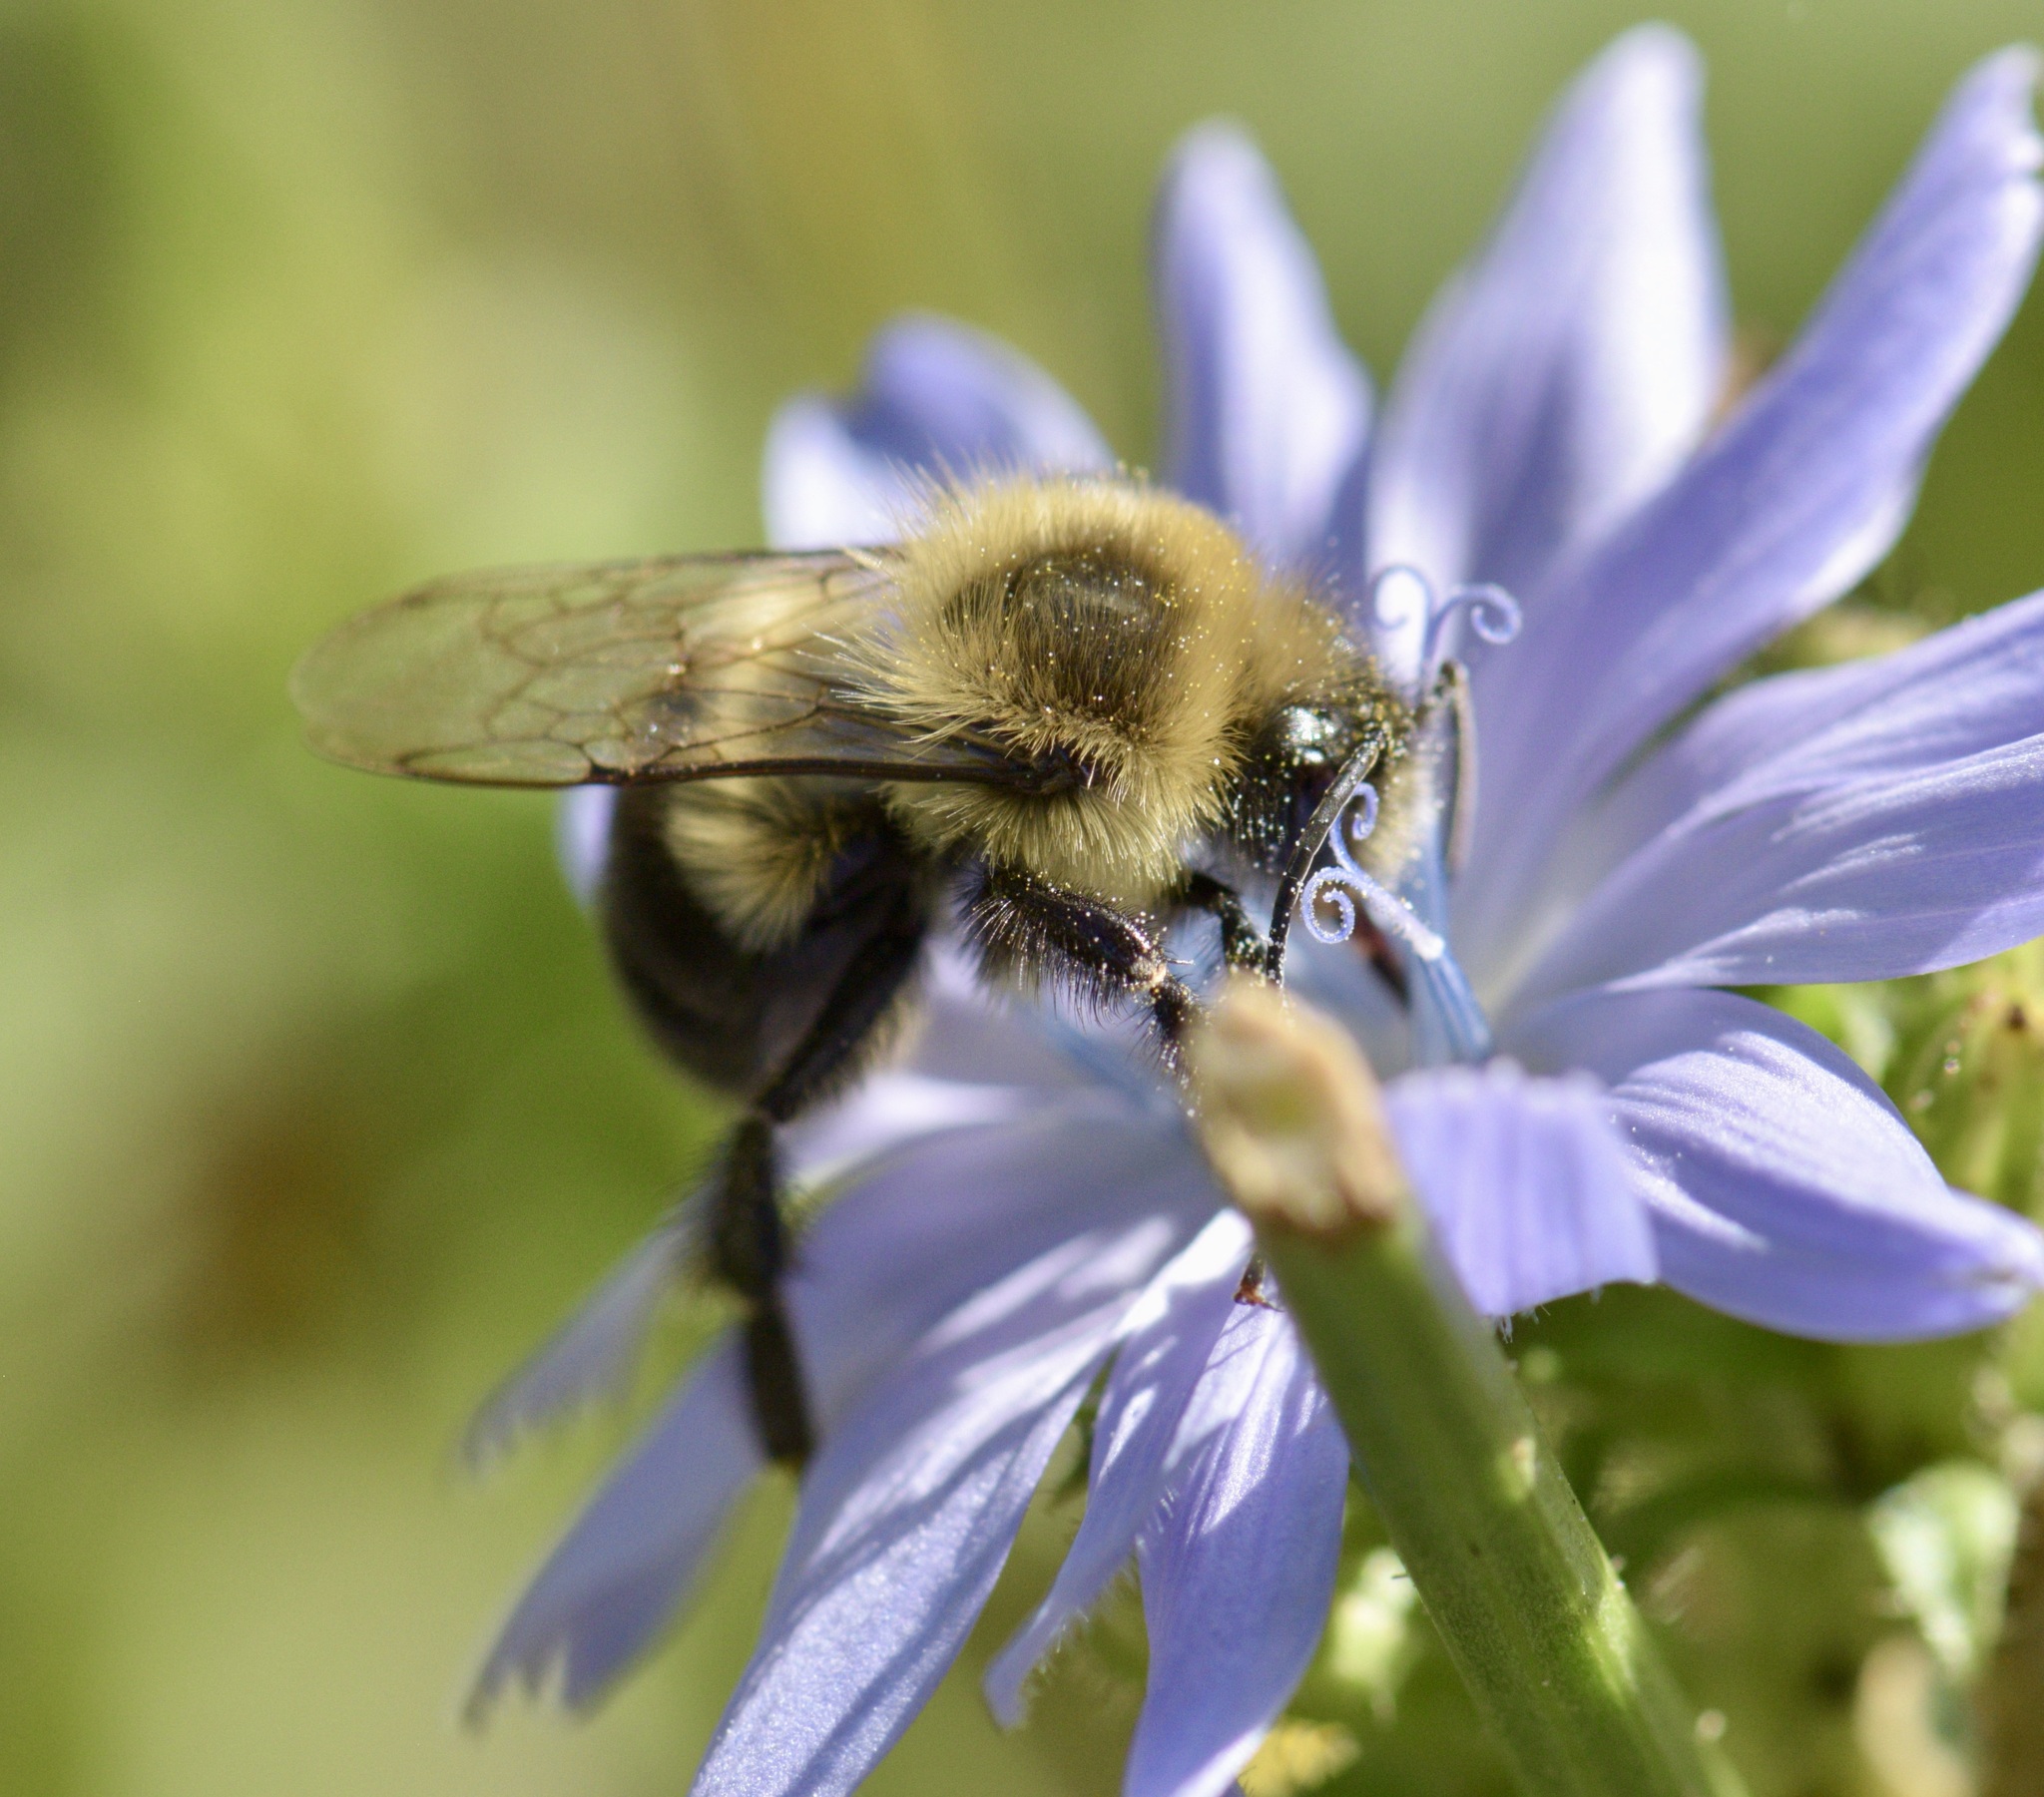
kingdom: Animalia
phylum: Arthropoda
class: Insecta
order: Hymenoptera
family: Apidae
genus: Bombus
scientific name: Bombus impatiens
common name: Common eastern bumble bee
